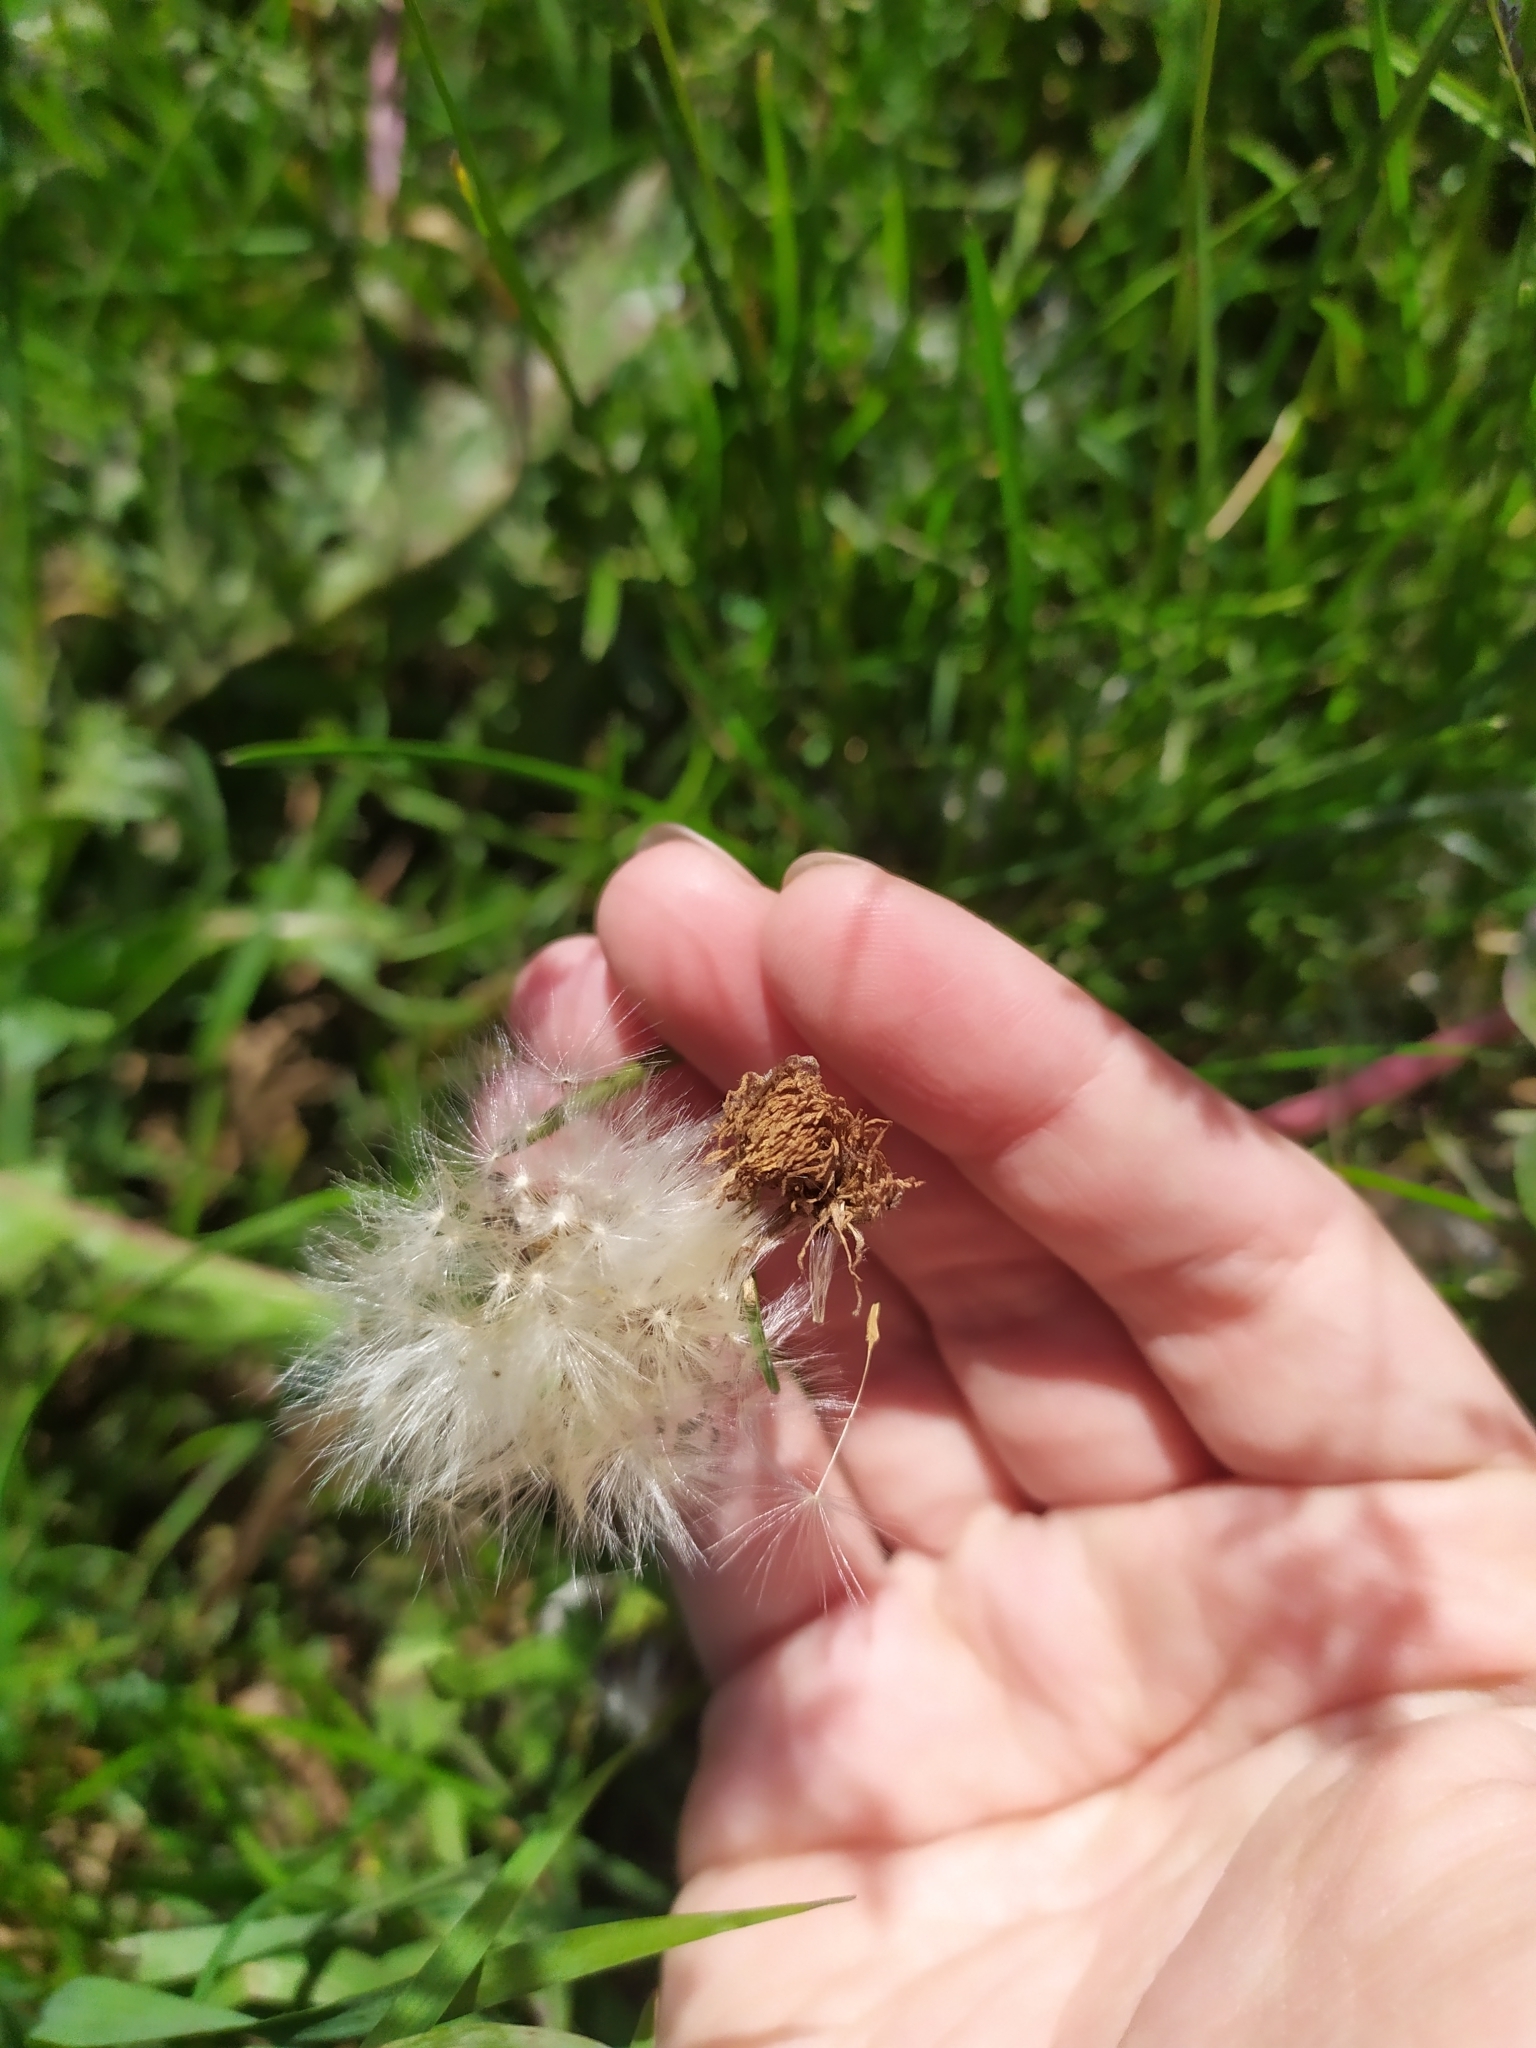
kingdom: Plantae
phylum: Tracheophyta
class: Magnoliopsida
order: Asterales
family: Asteraceae
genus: Taraxacum
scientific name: Taraxacum officinale
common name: Common dandelion
